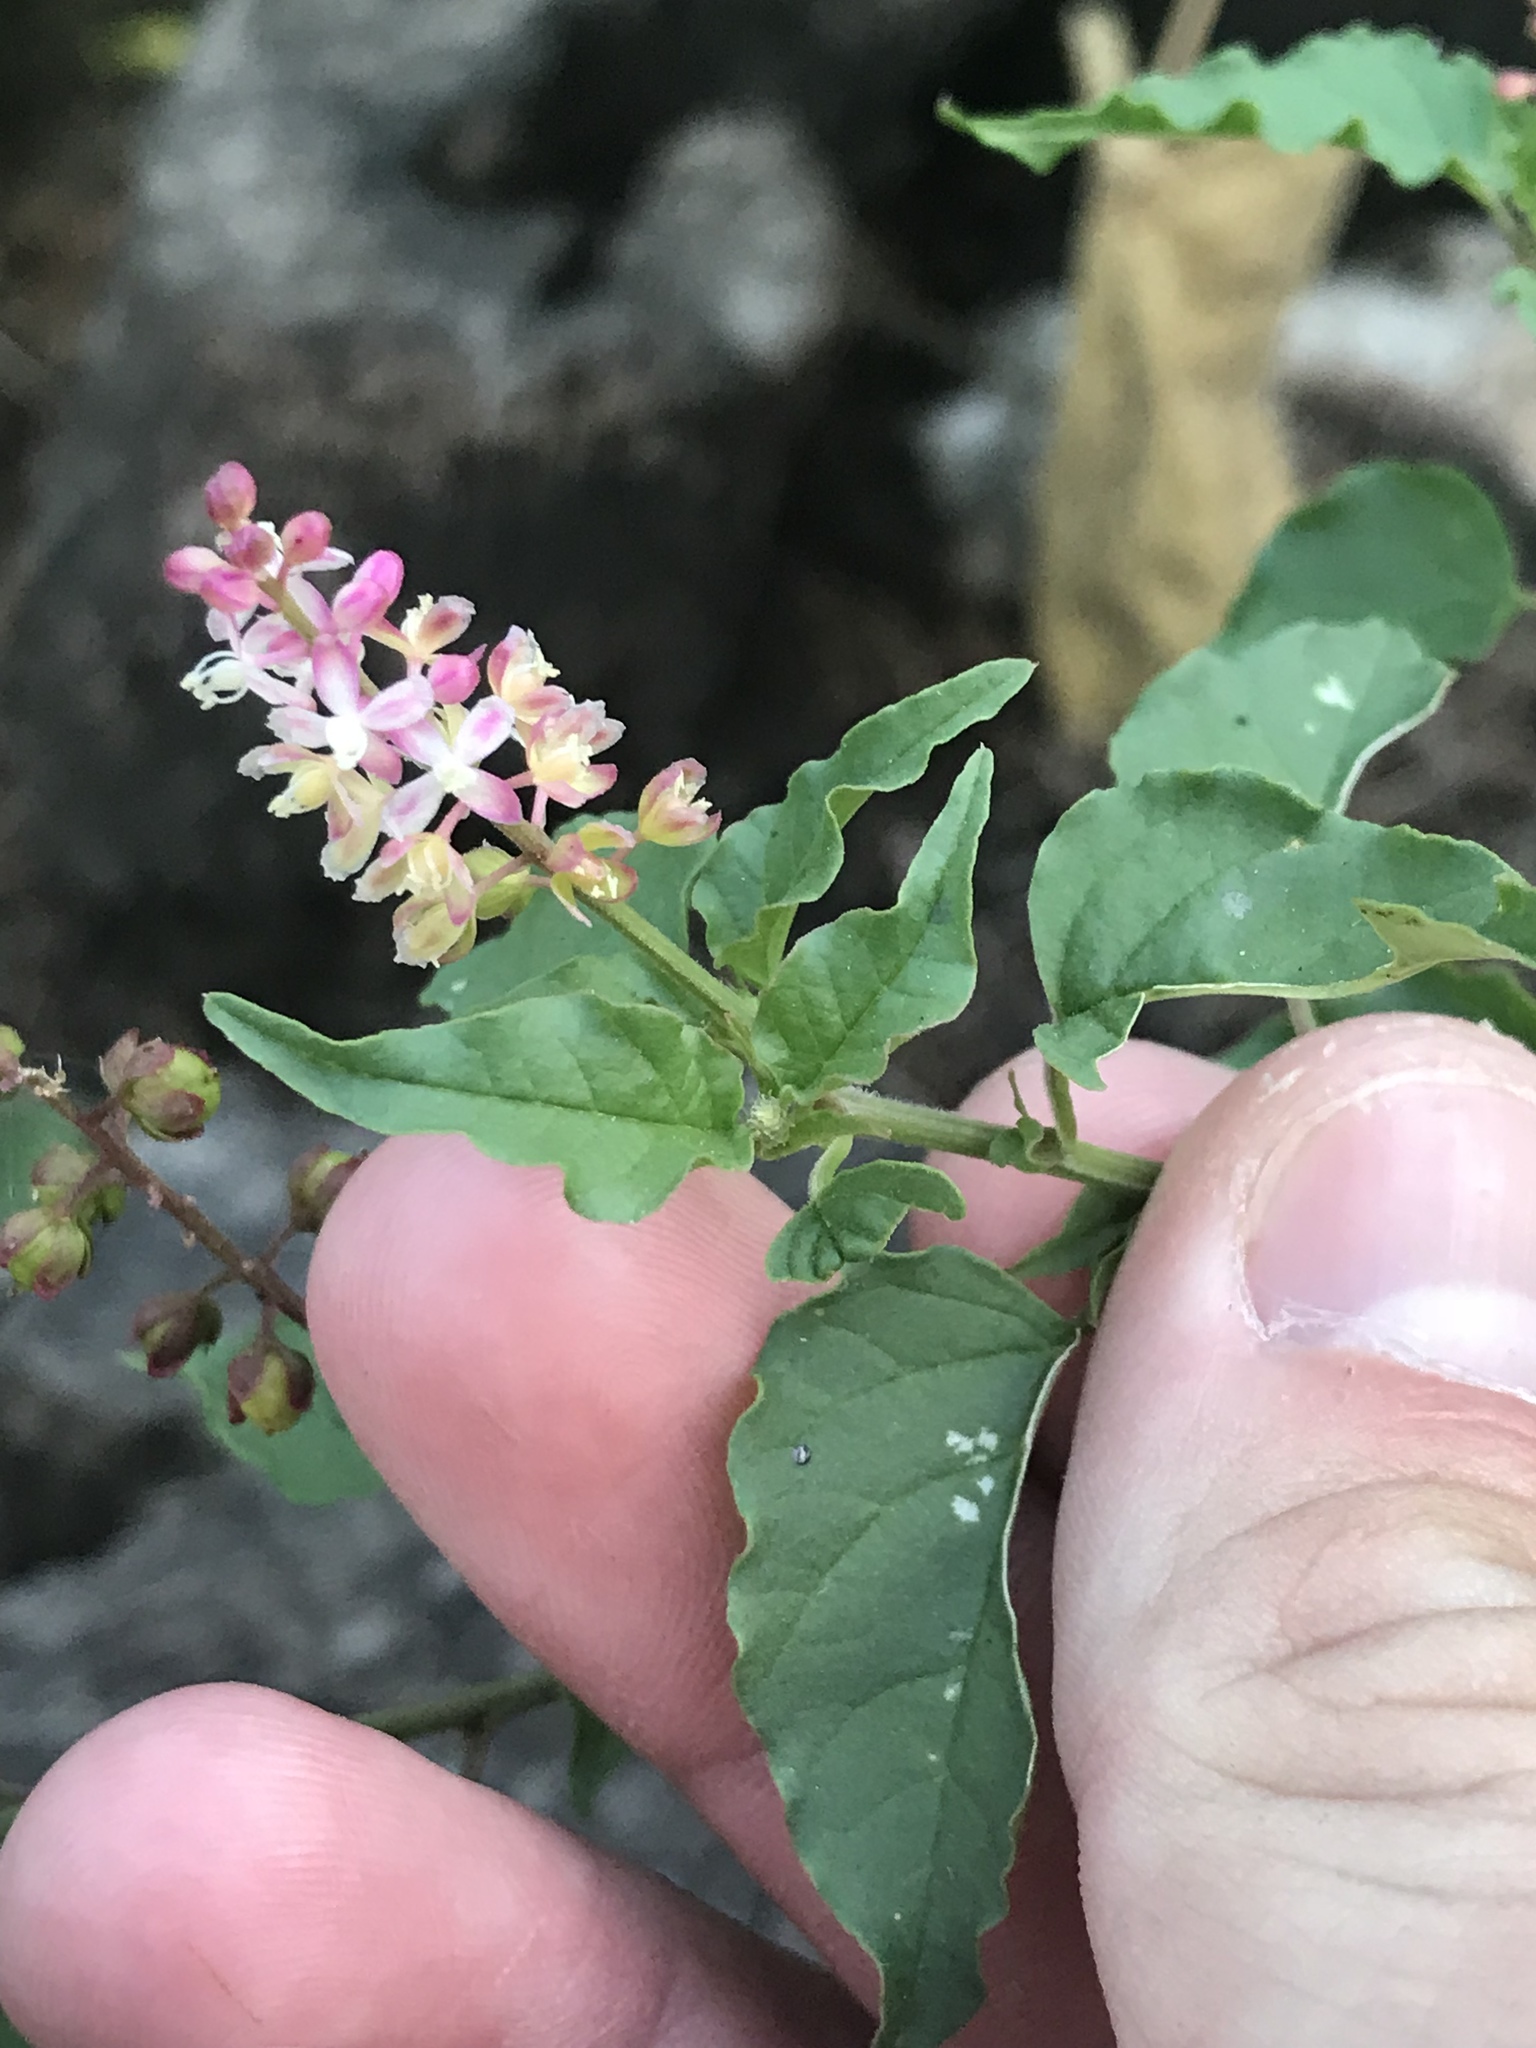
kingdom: Plantae
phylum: Tracheophyta
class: Magnoliopsida
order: Caryophyllales
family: Phytolaccaceae
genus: Rivina
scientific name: Rivina humilis
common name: Rougeplant
